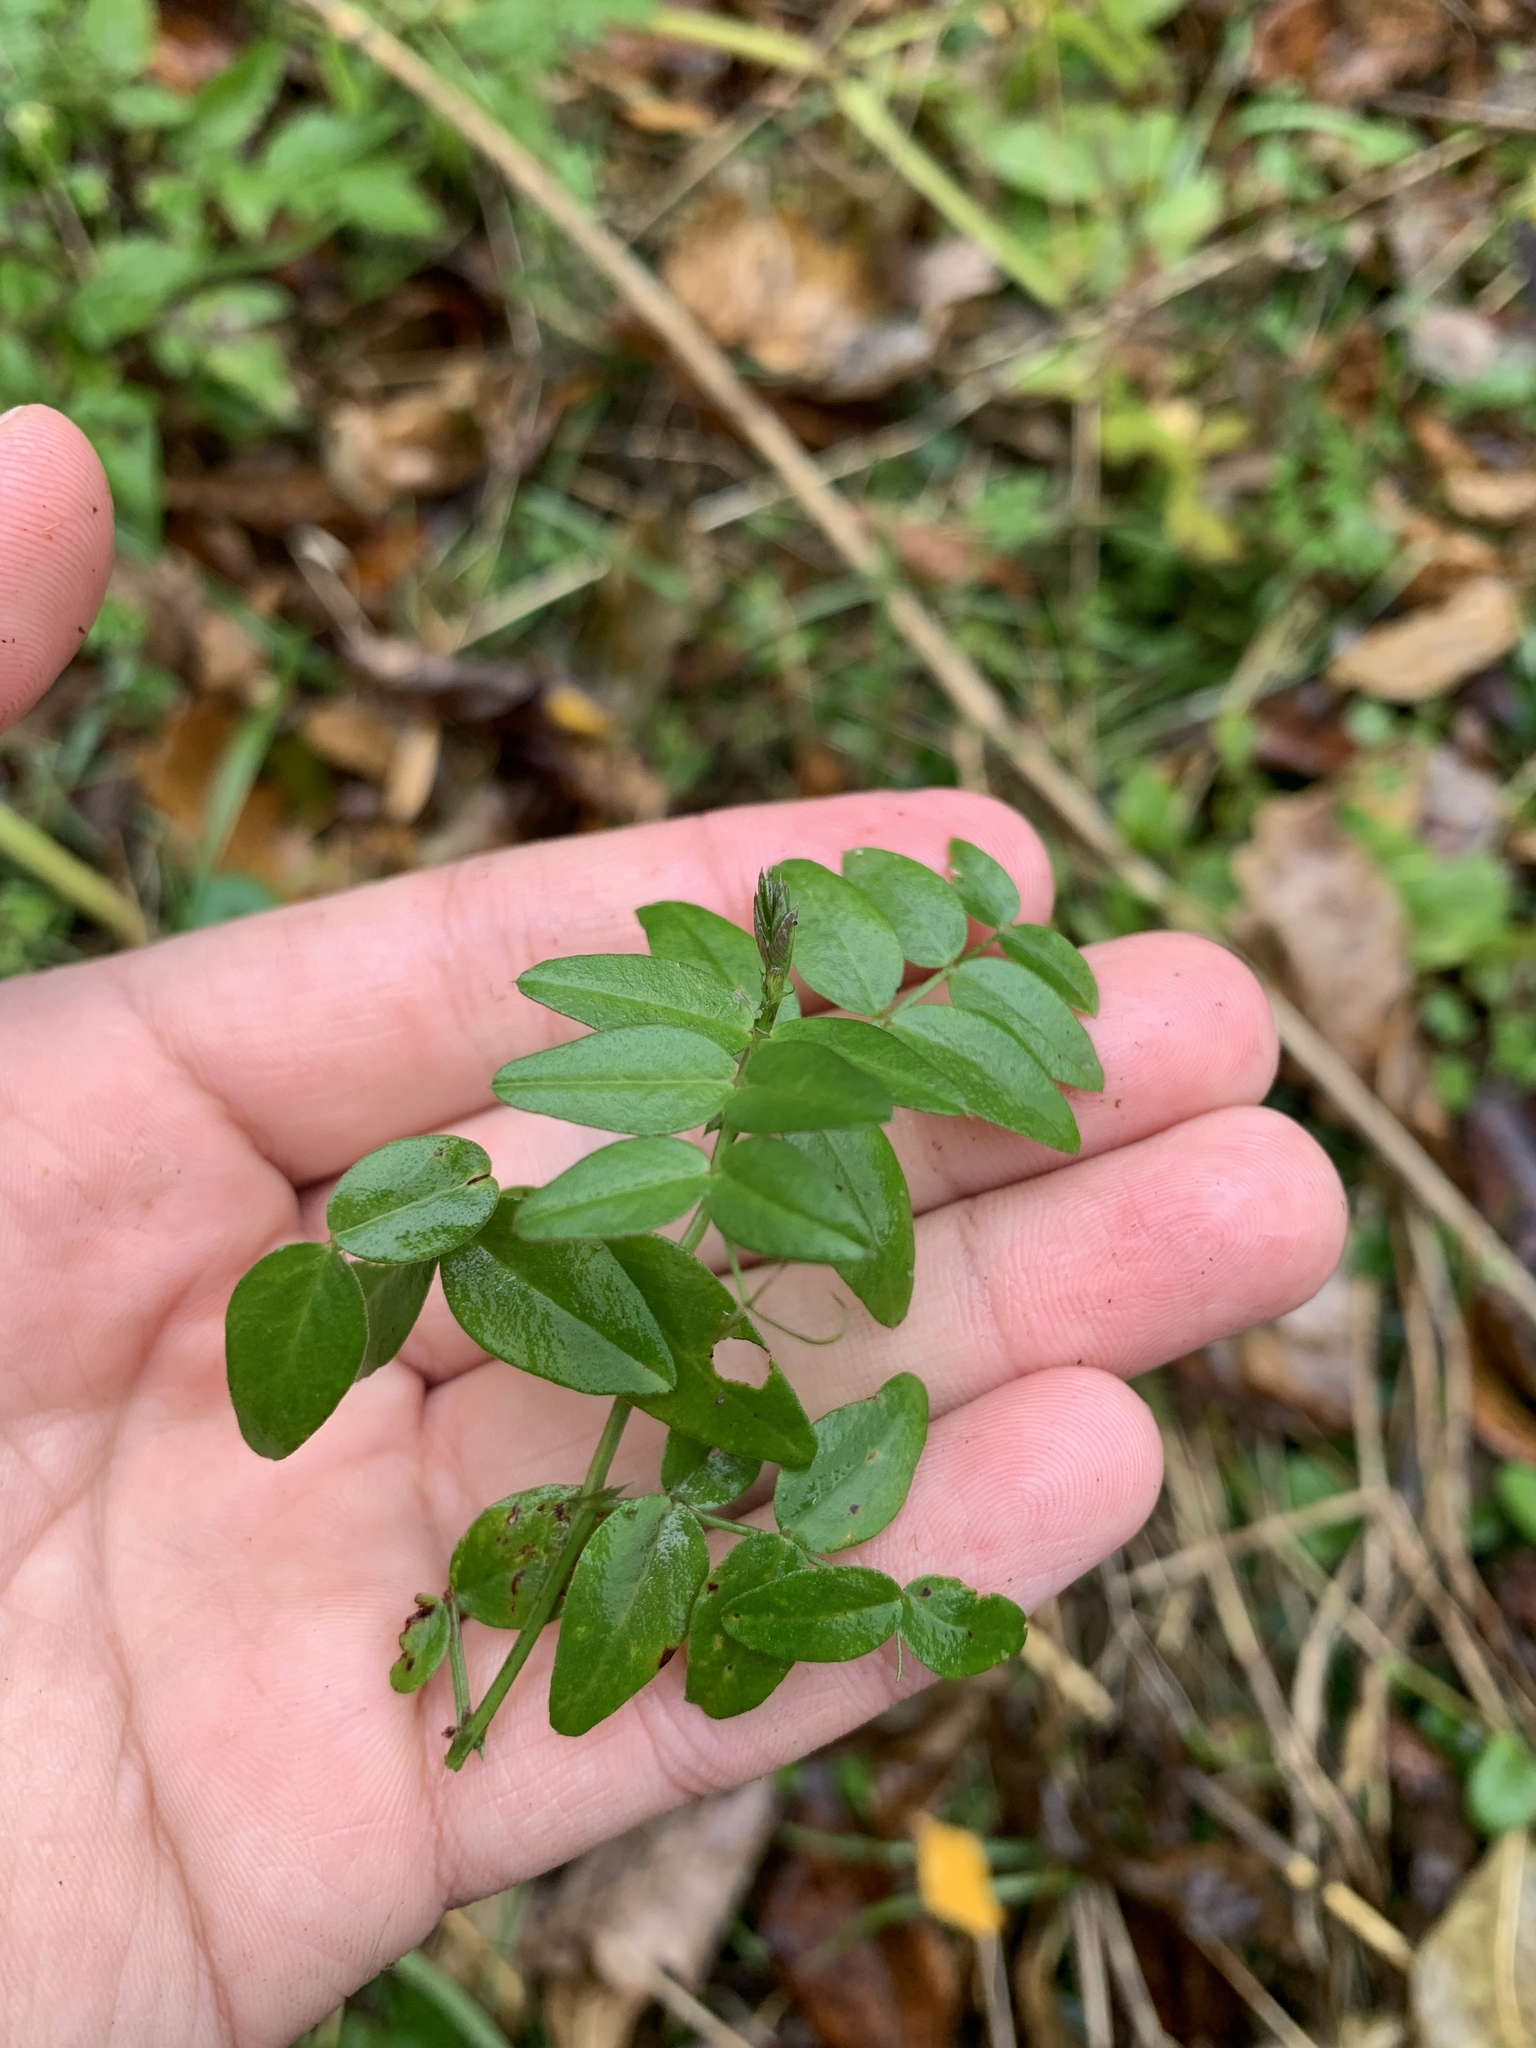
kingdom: Plantae
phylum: Tracheophyta
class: Magnoliopsida
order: Fabales
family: Fabaceae
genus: Vicia
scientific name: Vicia sepium
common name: Bush vetch
